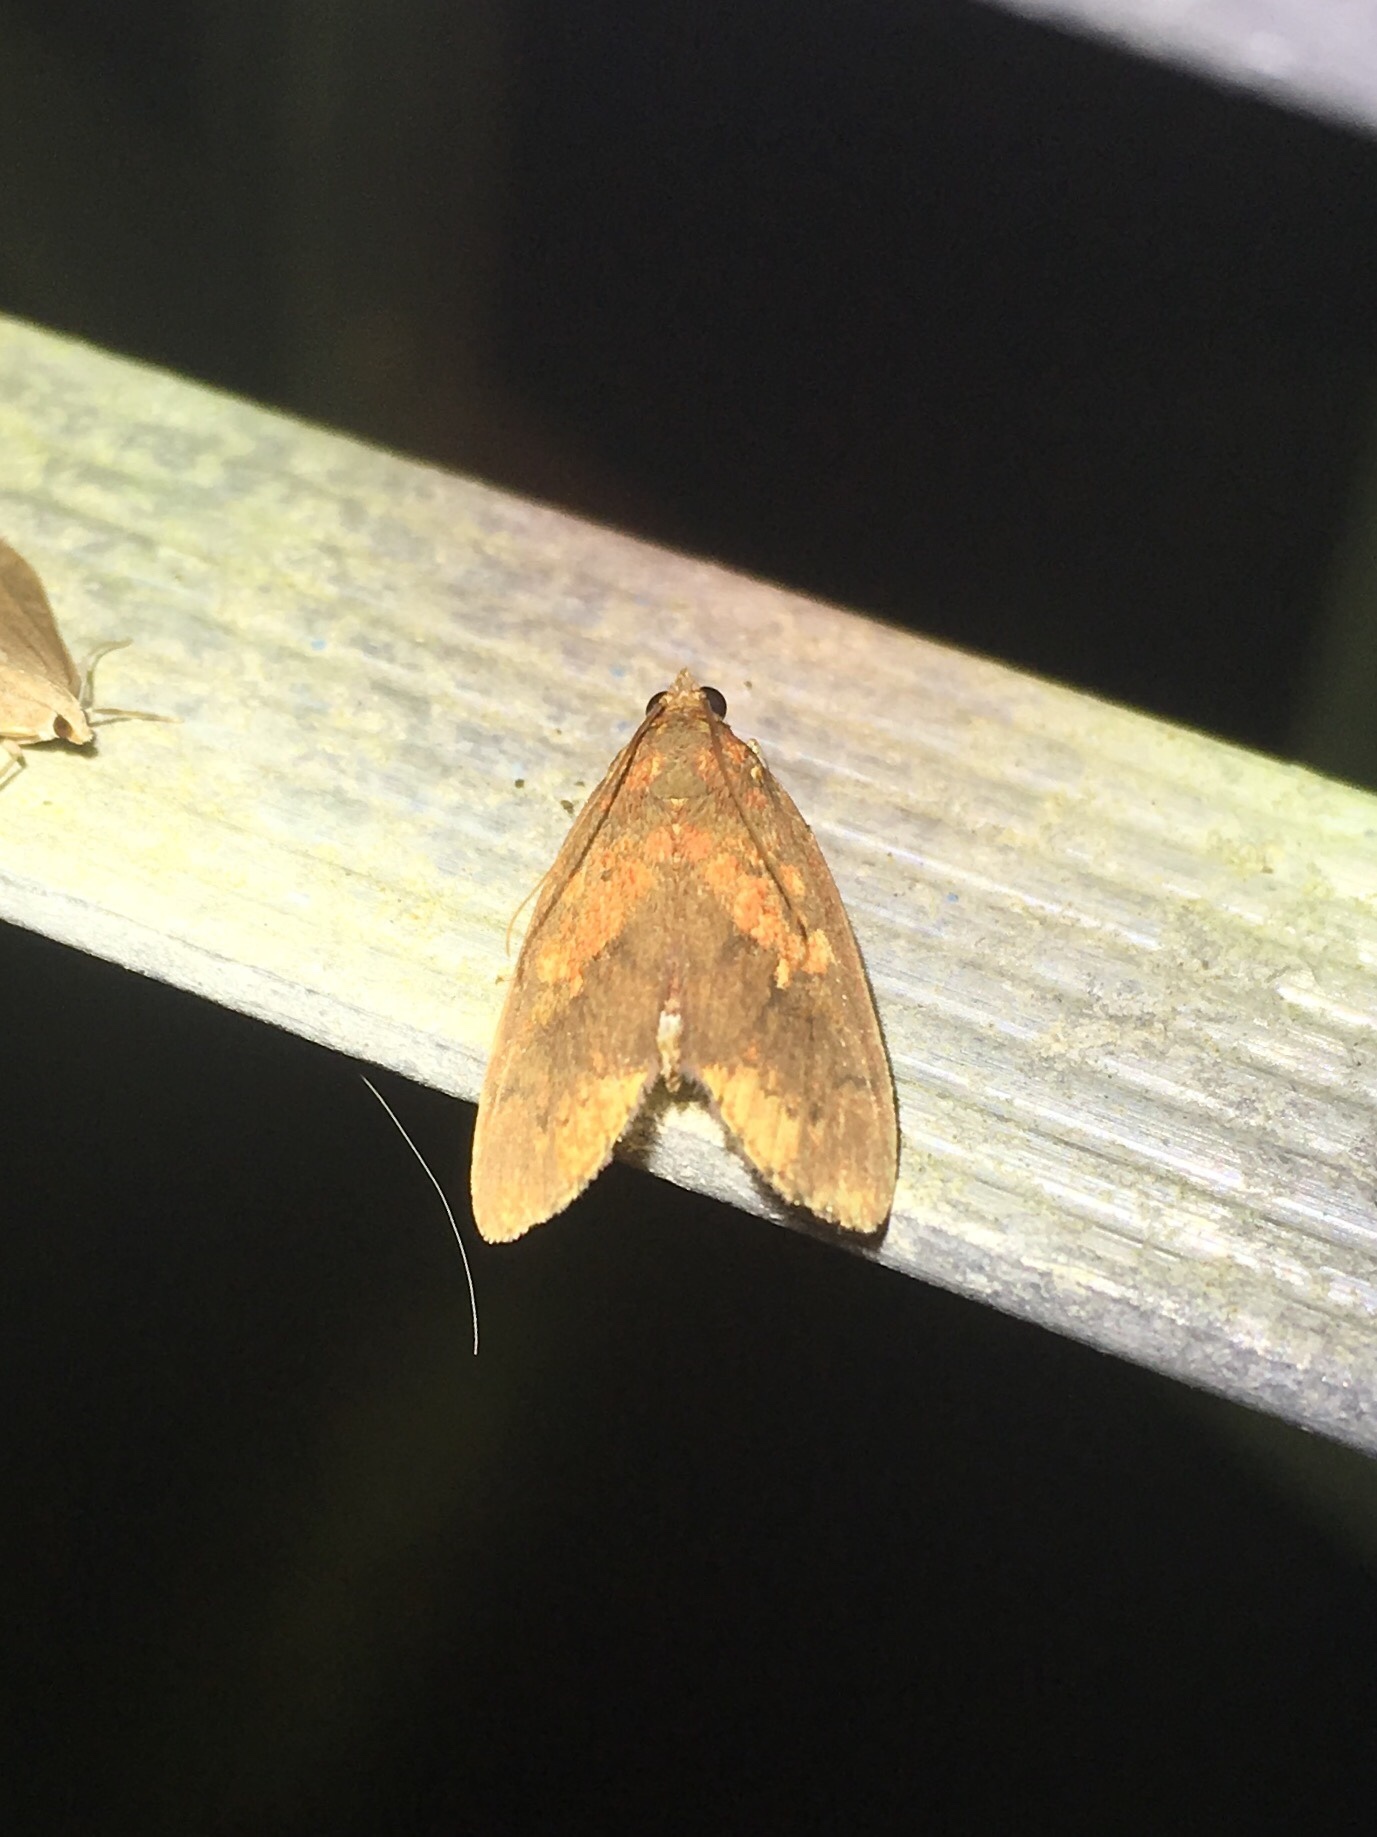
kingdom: Animalia
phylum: Arthropoda
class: Insecta
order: Lepidoptera
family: Crambidae
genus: Mimophobetron
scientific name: Mimophobetron pyropsalis
